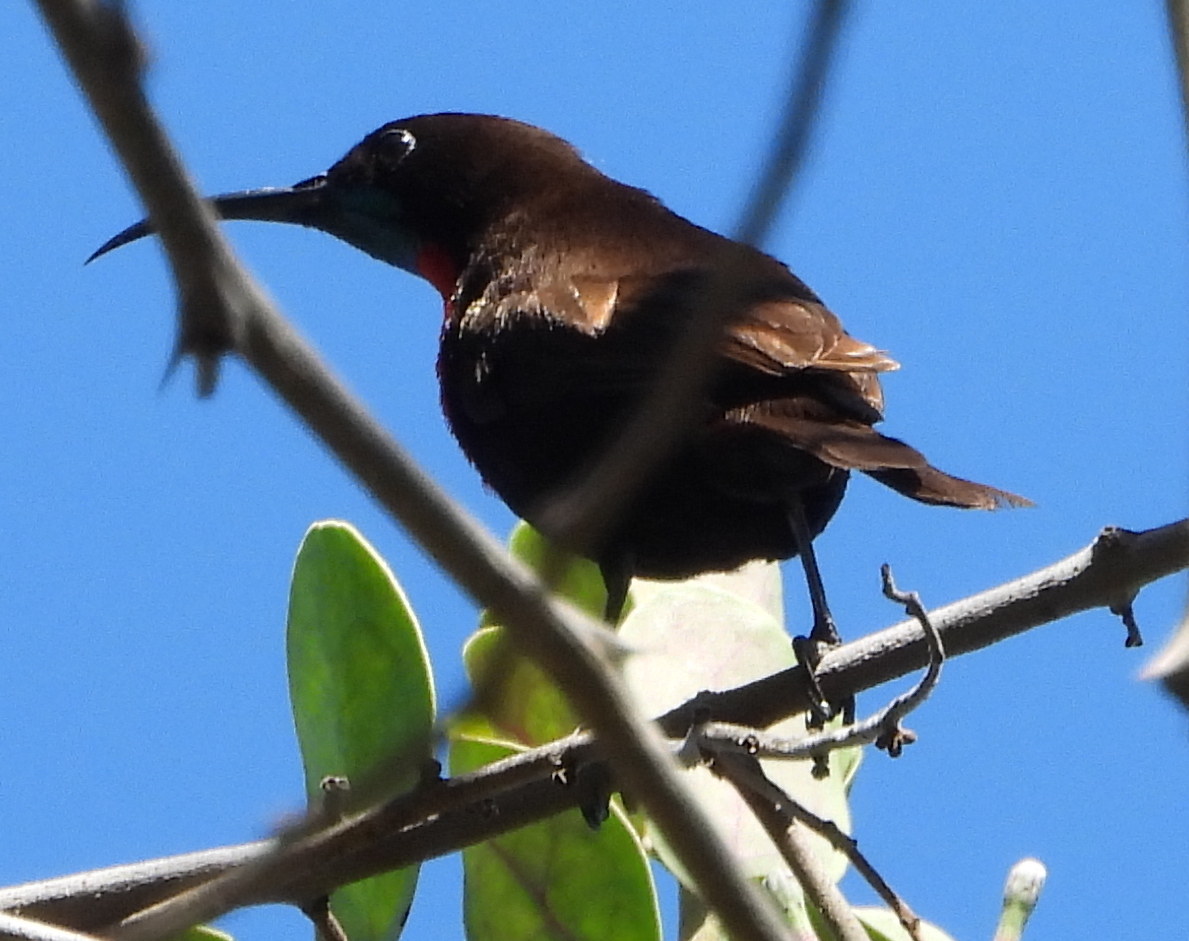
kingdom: Animalia
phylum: Chordata
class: Aves
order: Passeriformes
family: Nectariniidae
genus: Chalcomitra
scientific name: Chalcomitra senegalensis
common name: Scarlet-chested sunbird
